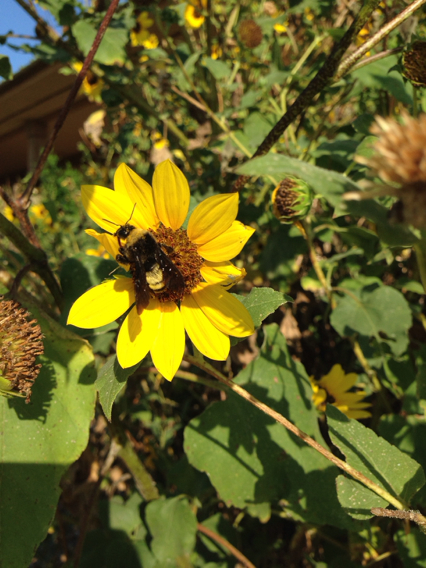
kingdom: Animalia
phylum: Arthropoda
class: Insecta
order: Hymenoptera
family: Apidae
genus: Bombus
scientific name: Bombus pensylvanicus
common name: Bumble bee
